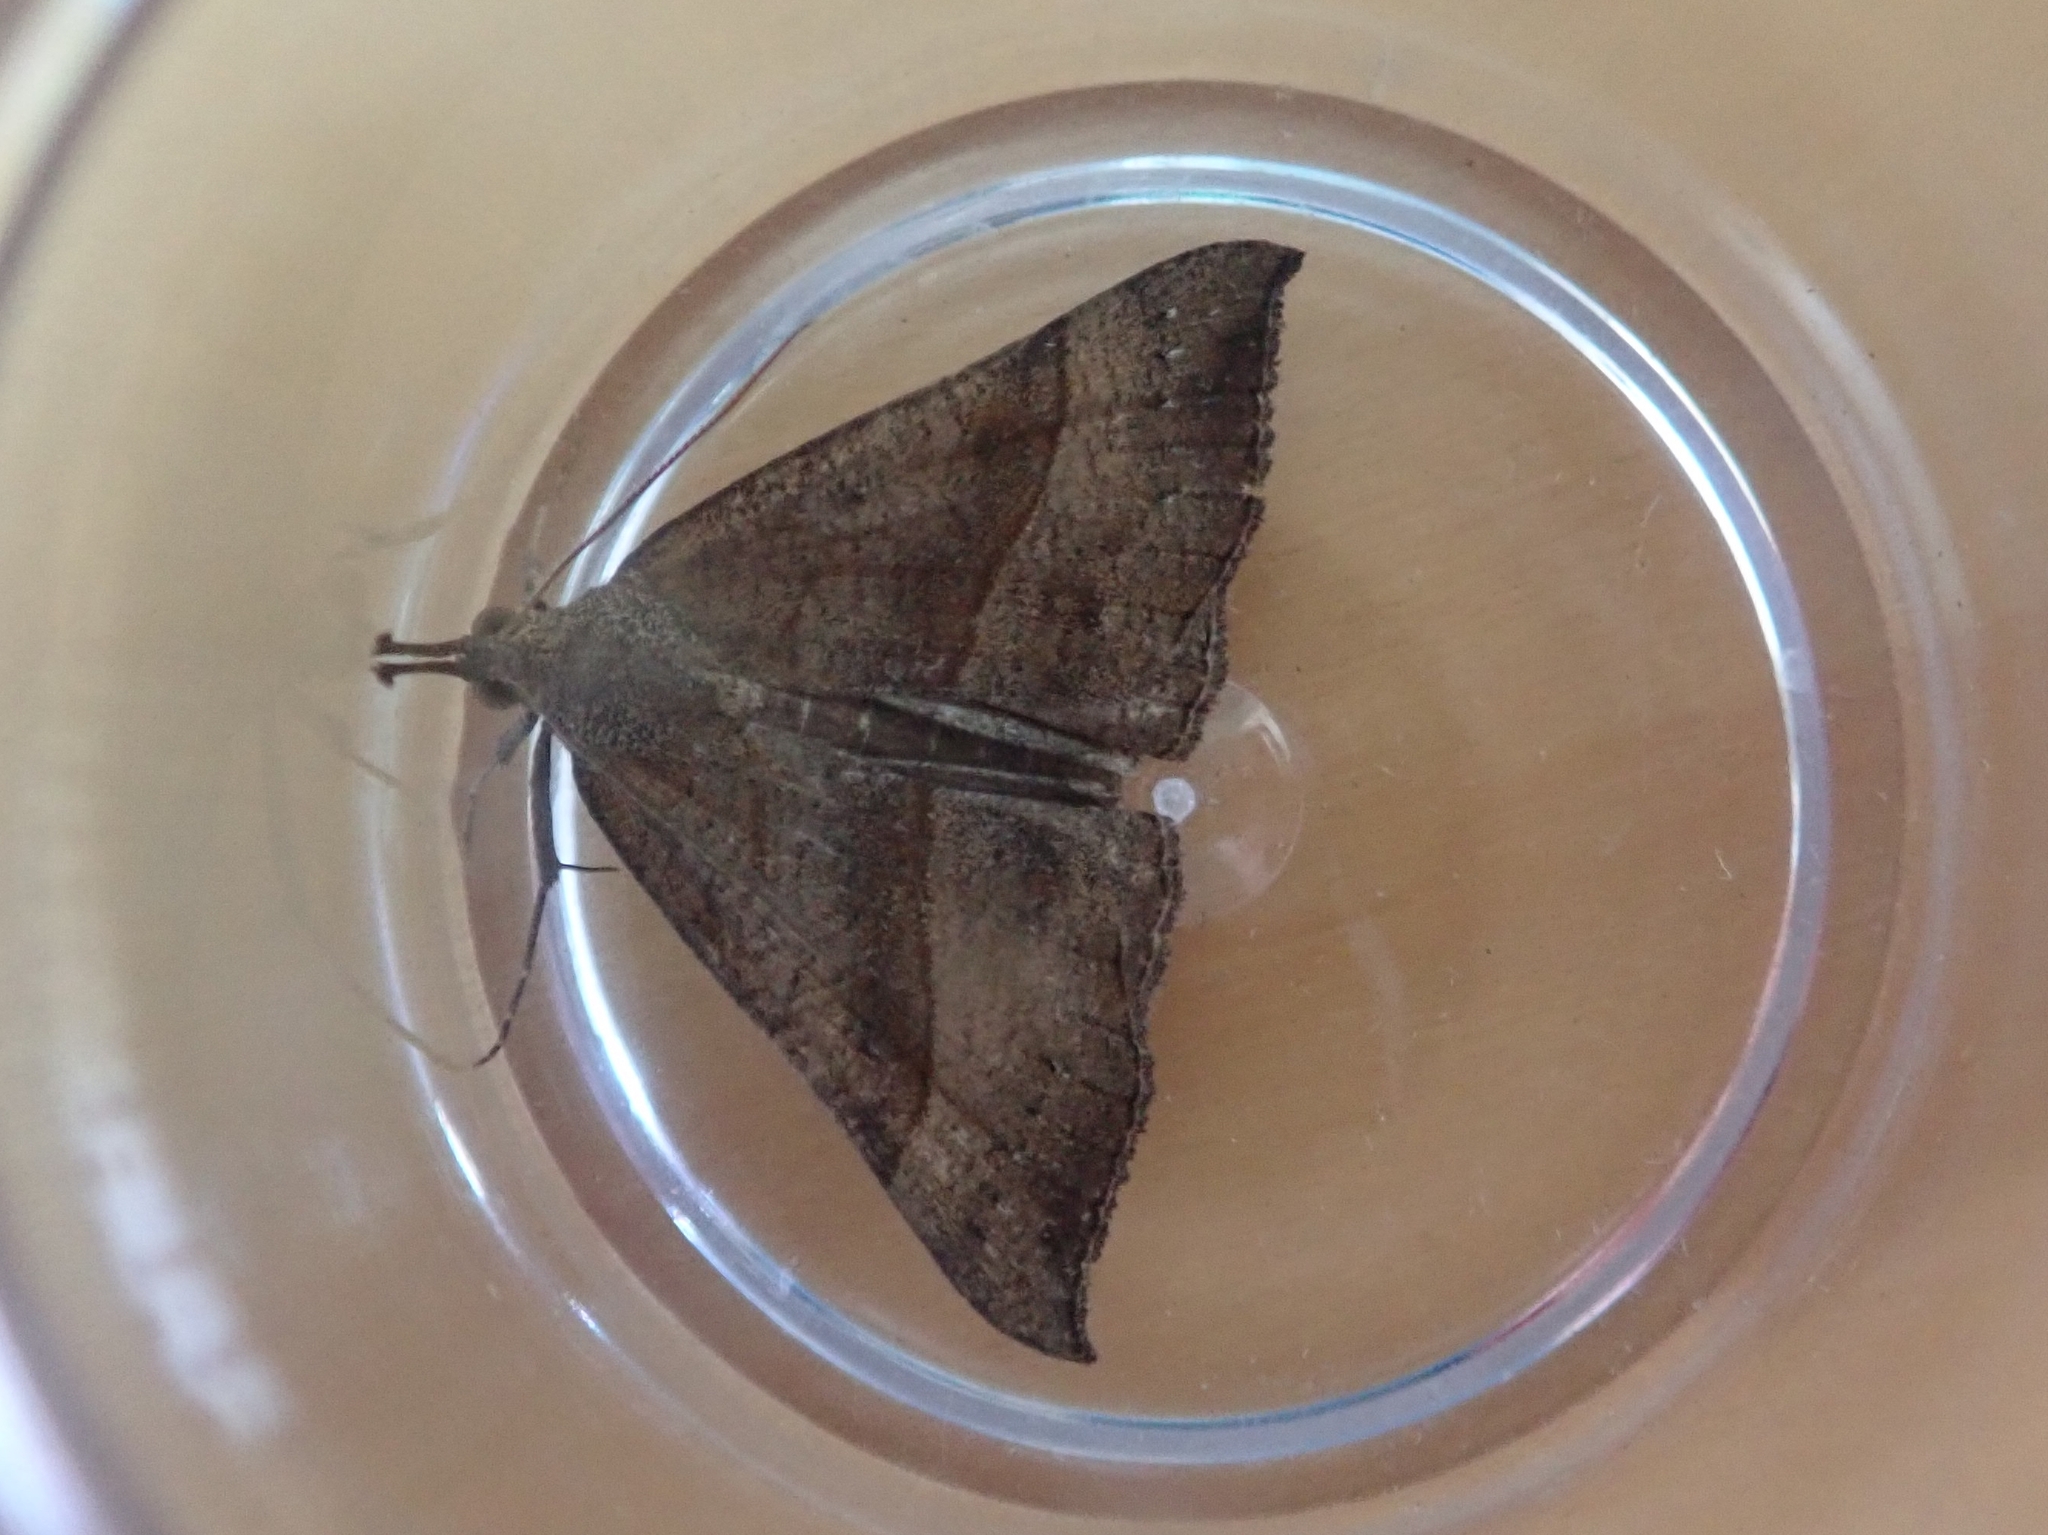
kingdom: Animalia
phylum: Arthropoda
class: Insecta
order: Lepidoptera
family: Erebidae
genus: Hypena
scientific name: Hypena proboscidalis
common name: Snout
